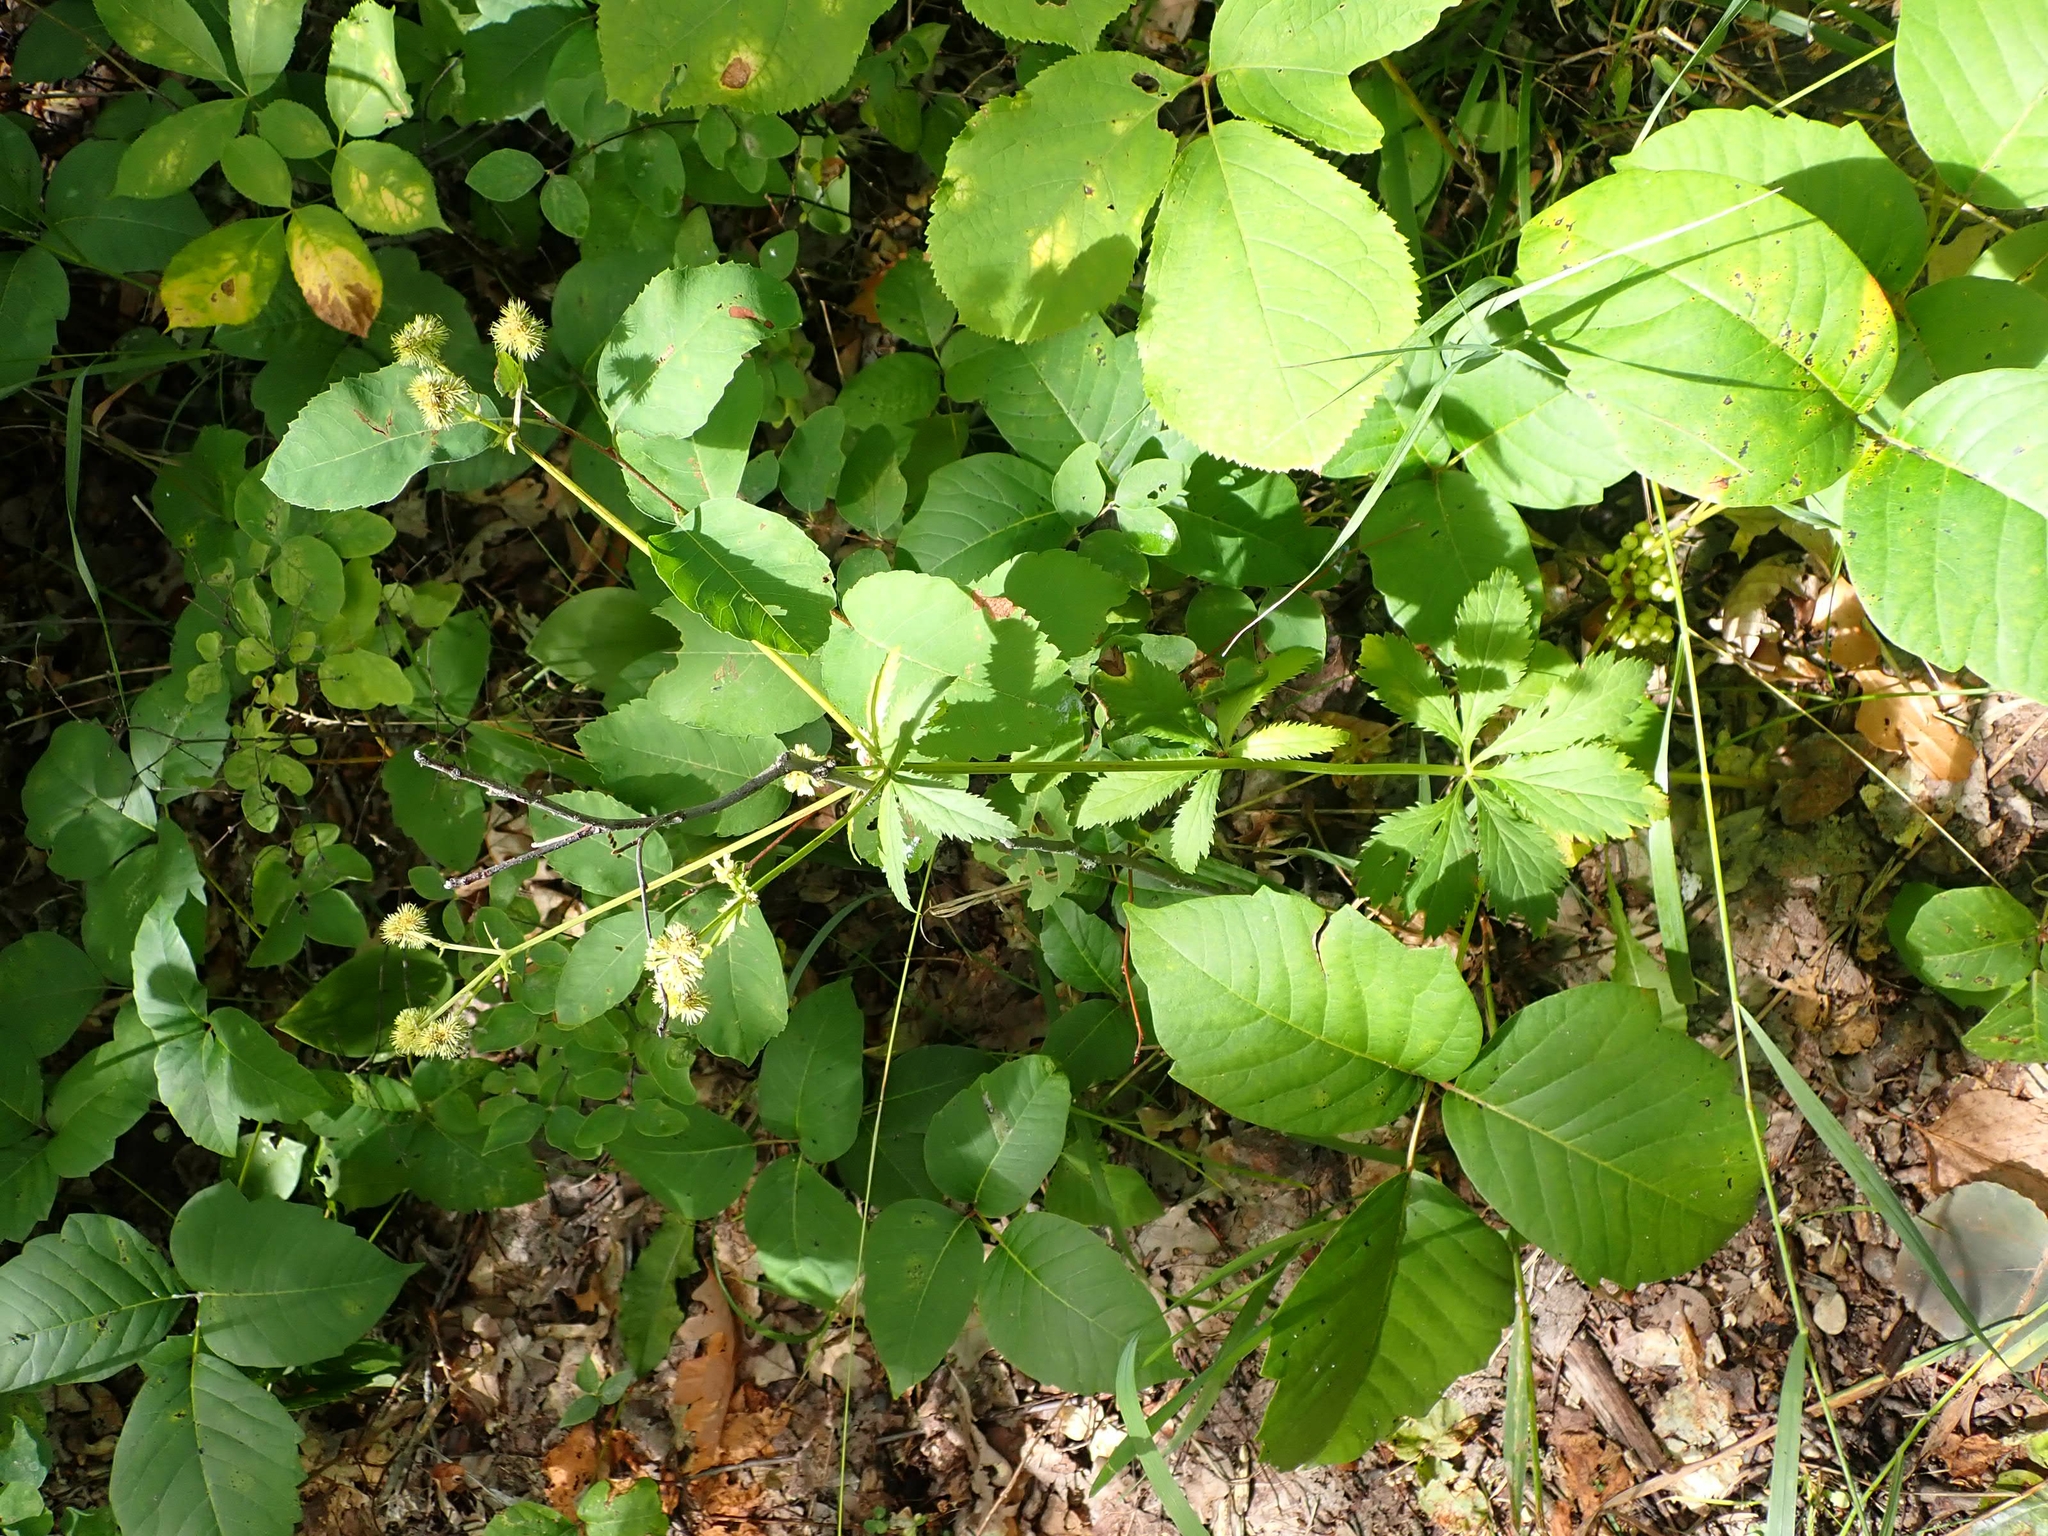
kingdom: Plantae
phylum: Tracheophyta
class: Magnoliopsida
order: Apiales
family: Apiaceae
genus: Sanicula
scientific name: Sanicula marilandica
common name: Black snakeroot
